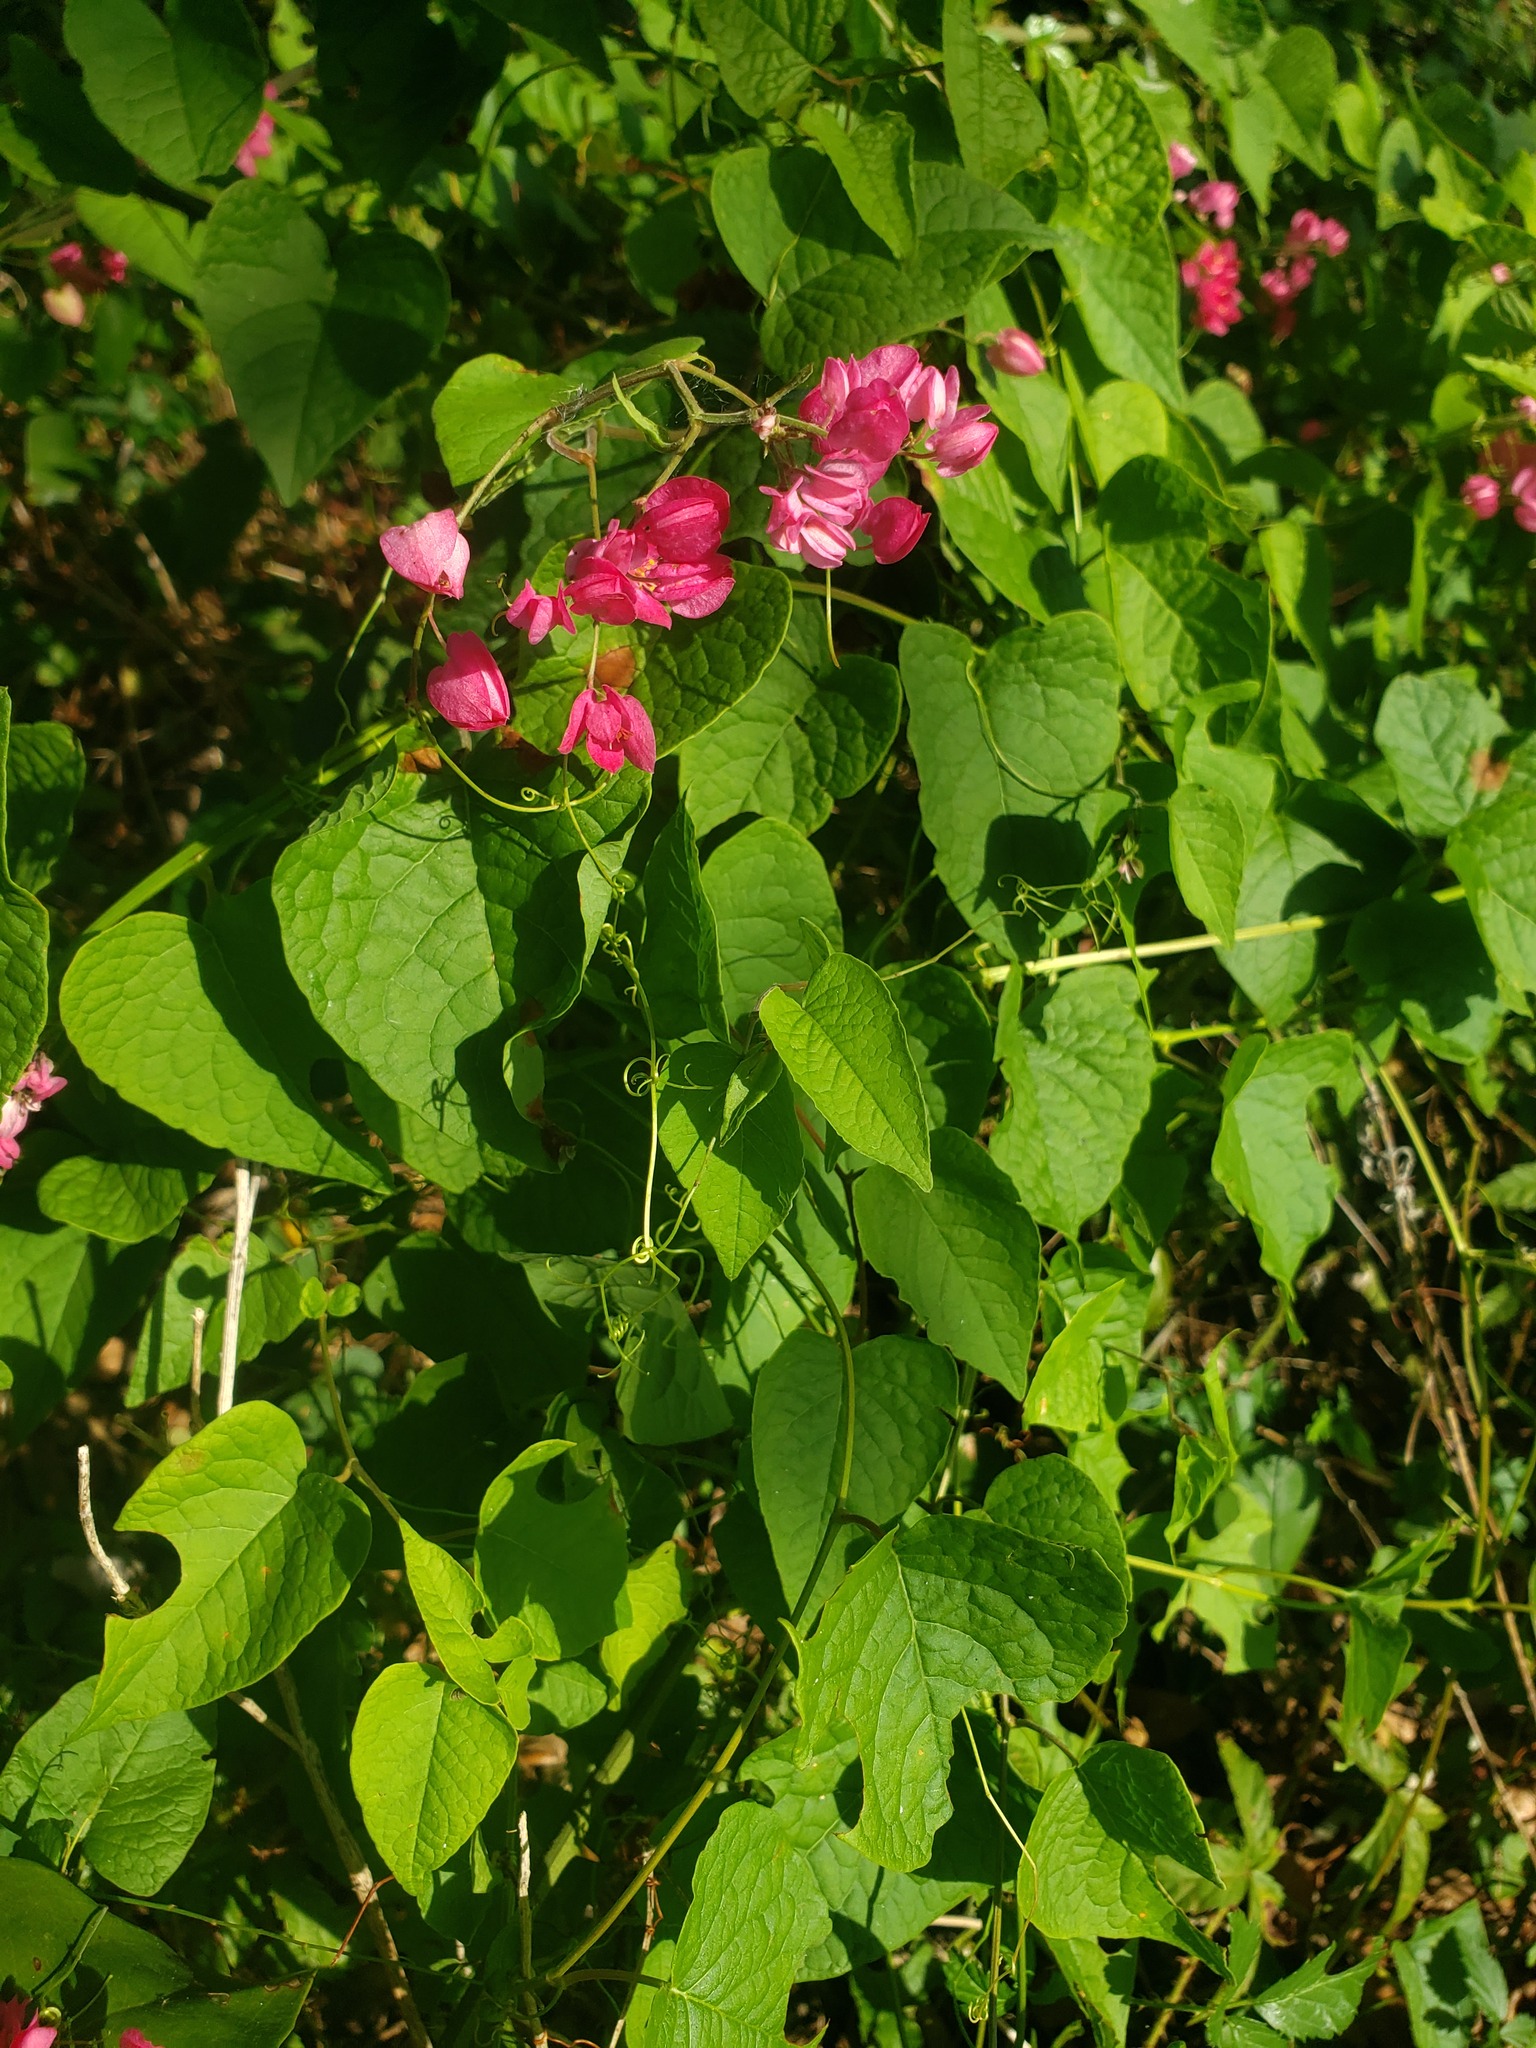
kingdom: Plantae
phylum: Tracheophyta
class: Magnoliopsida
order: Caryophyllales
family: Polygonaceae
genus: Antigonon
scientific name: Antigonon leptopus
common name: Coral vine
